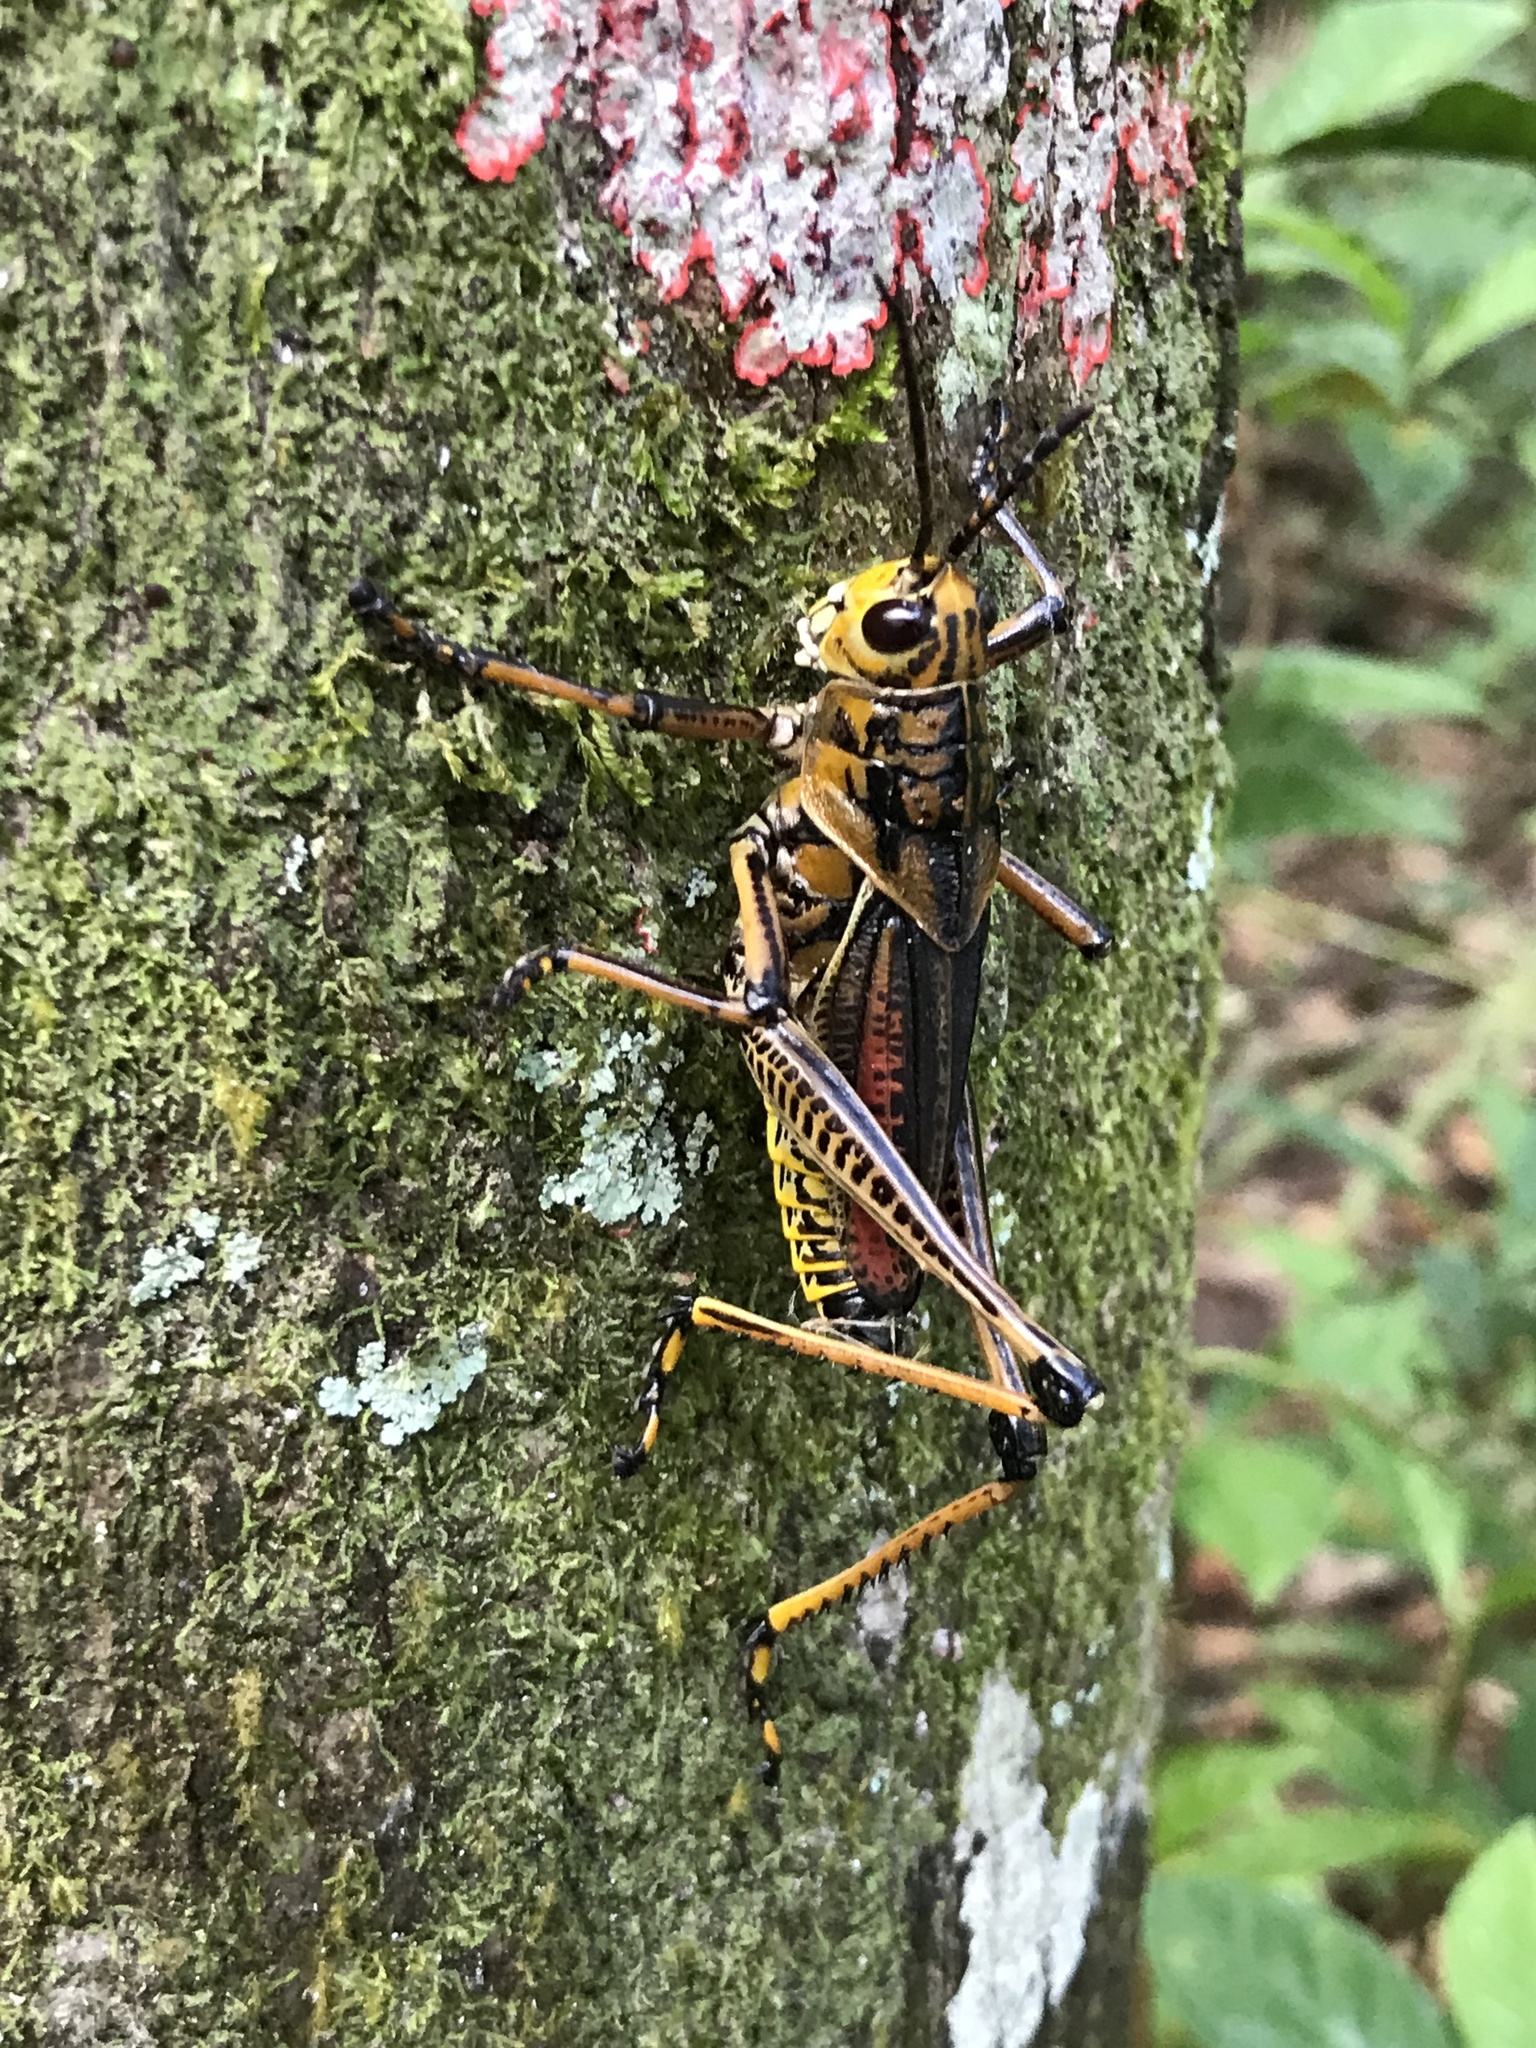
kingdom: Animalia
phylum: Arthropoda
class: Insecta
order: Orthoptera
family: Romaleidae
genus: Romalea
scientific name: Romalea microptera
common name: Eastern lubber grasshopper
